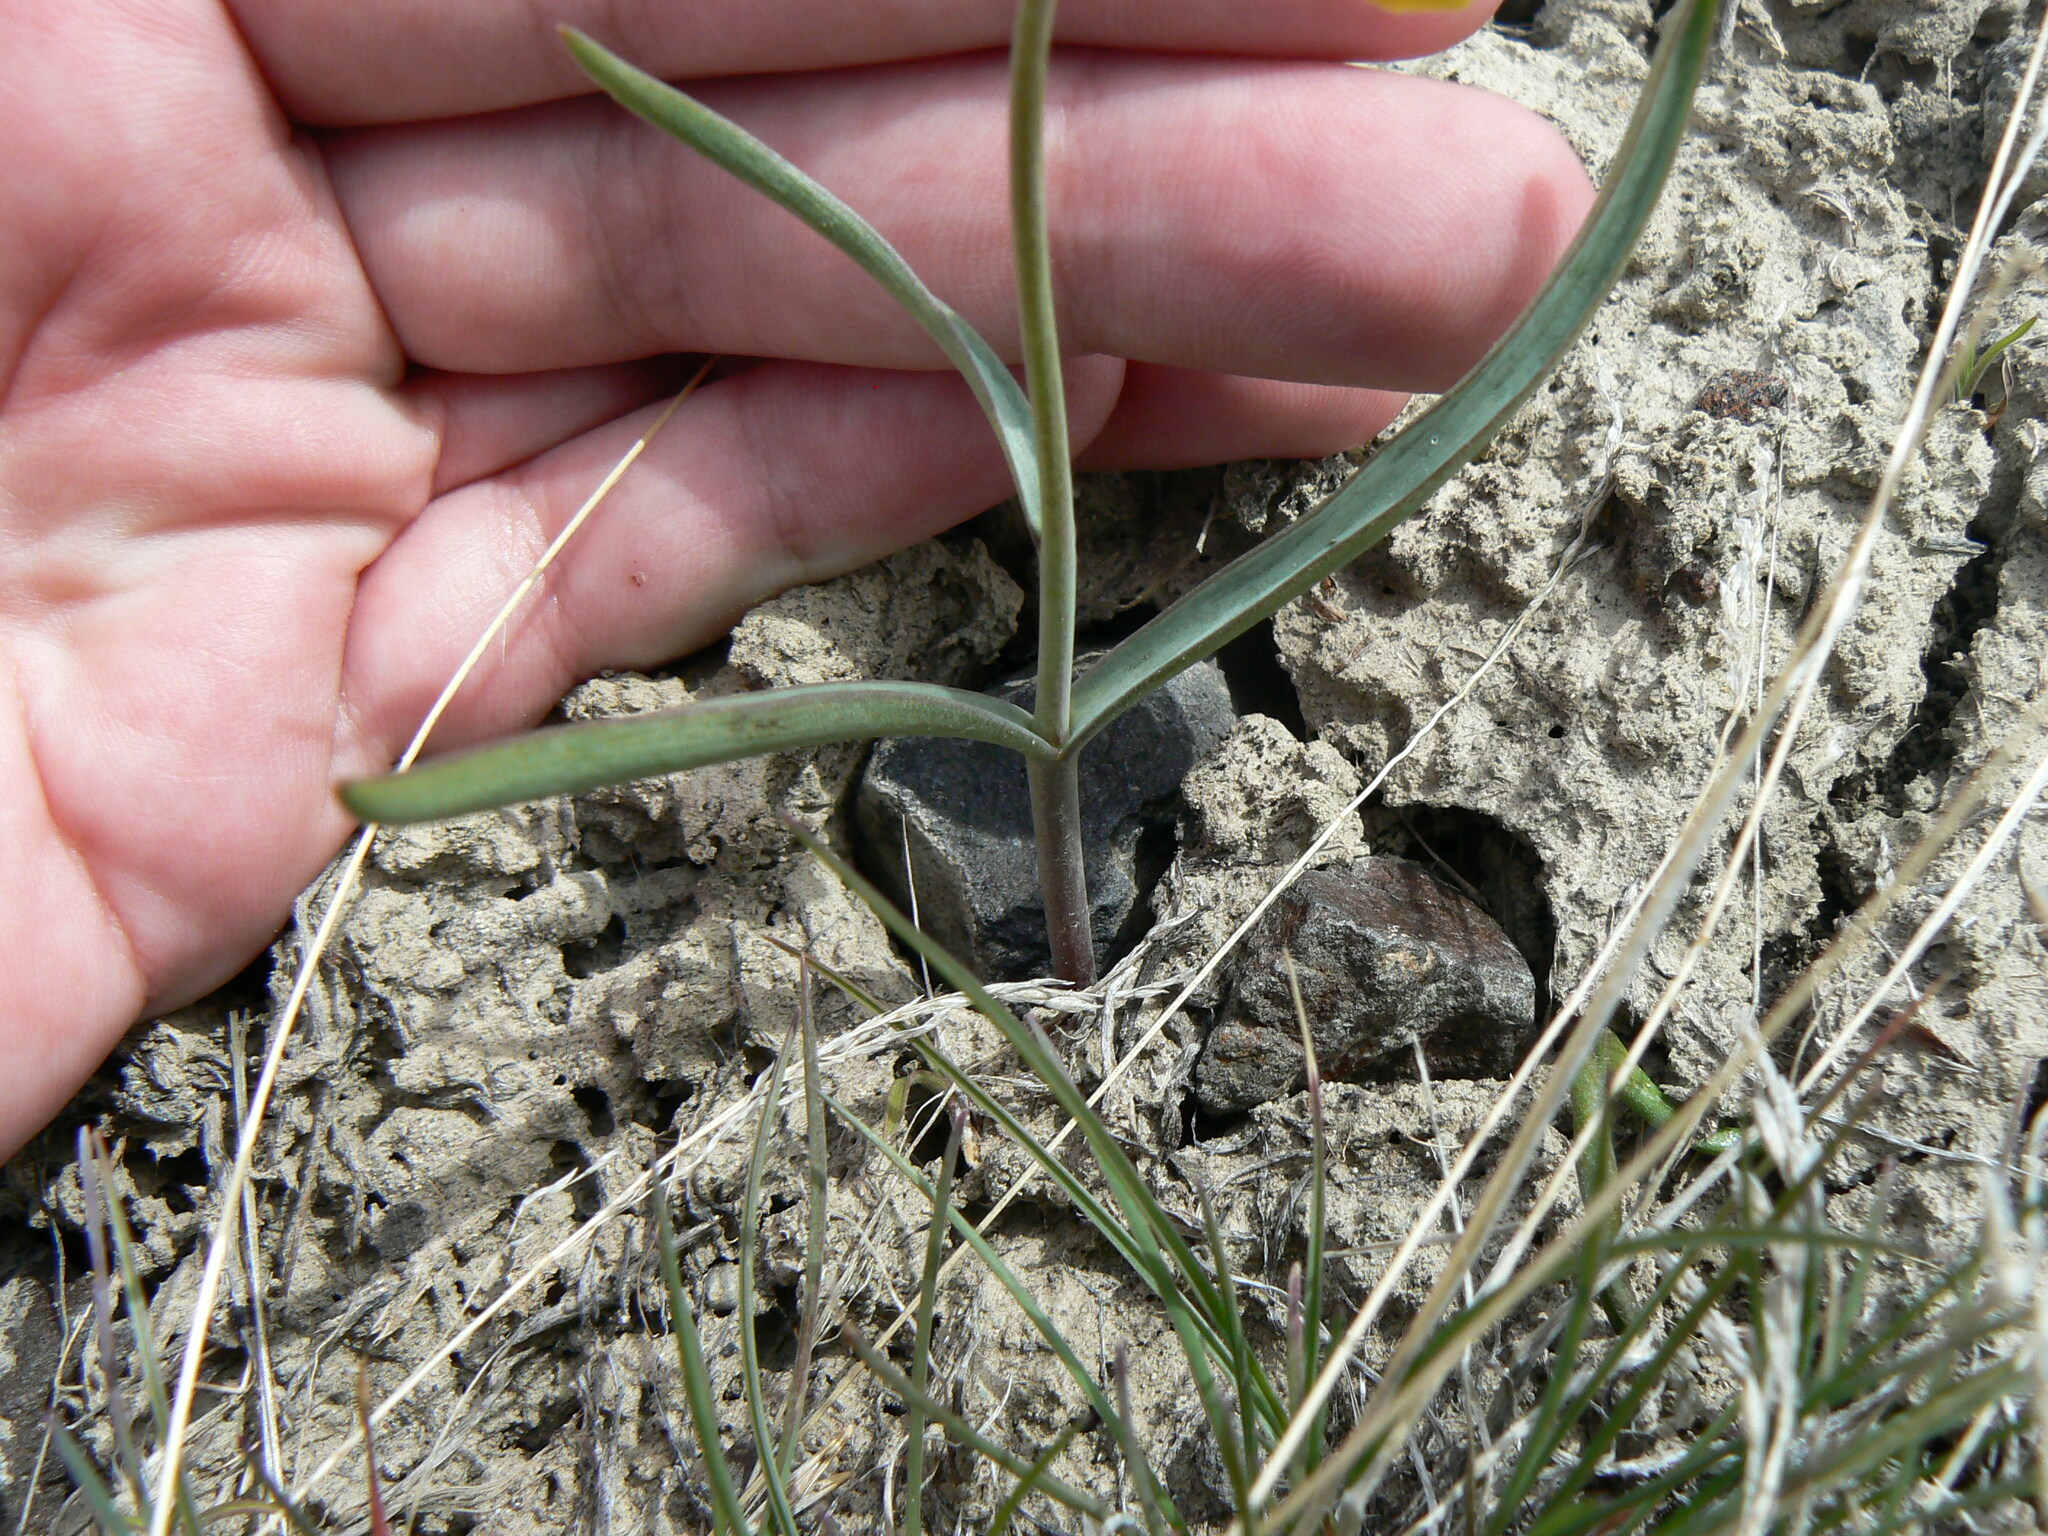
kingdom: Plantae
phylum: Tracheophyta
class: Liliopsida
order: Liliales
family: Liliaceae
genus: Fritillaria
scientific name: Fritillaria pudica
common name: Yellow fritillary
